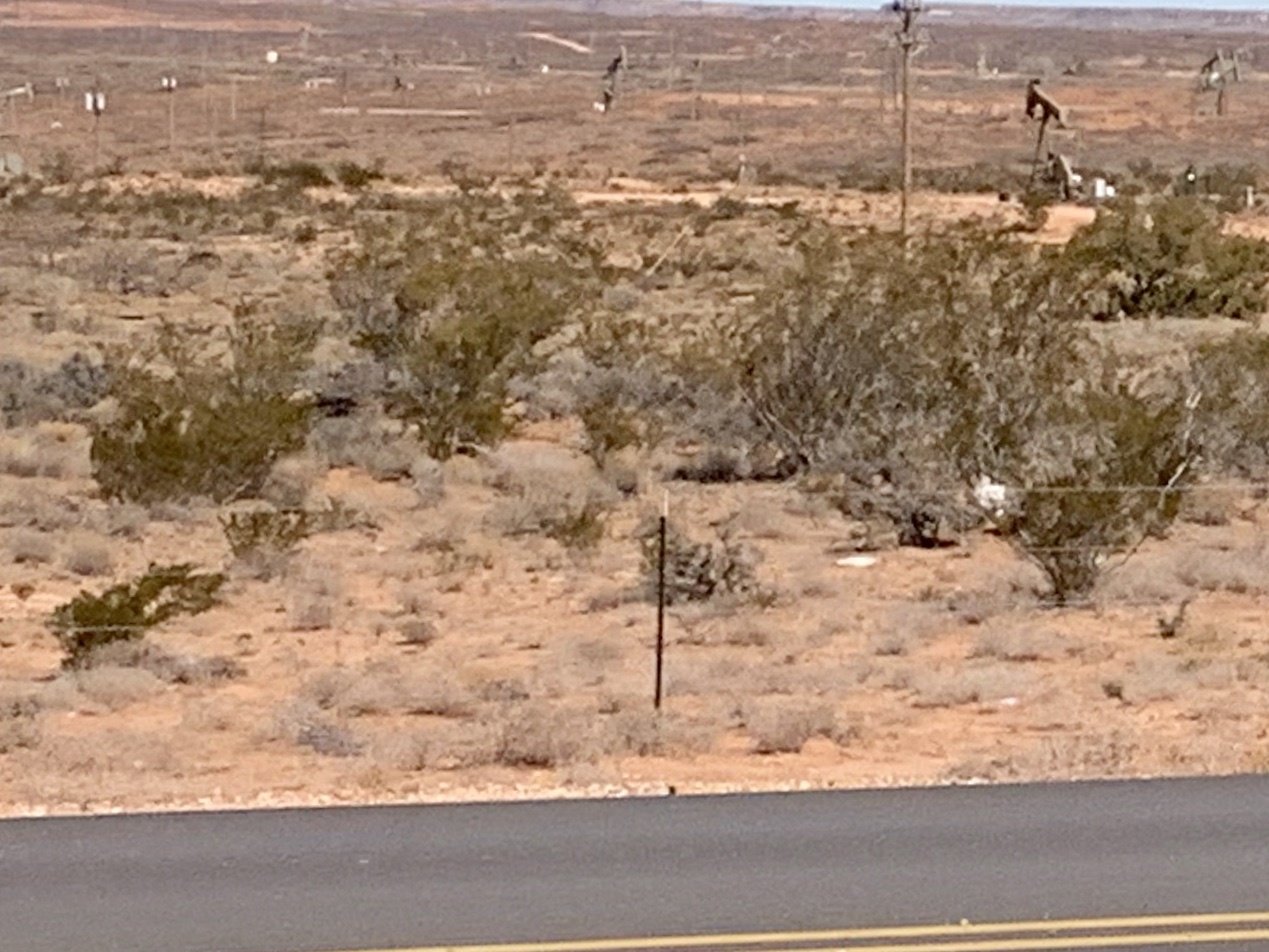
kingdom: Plantae
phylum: Tracheophyta
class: Magnoliopsida
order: Zygophyllales
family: Zygophyllaceae
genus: Larrea
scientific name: Larrea tridentata
